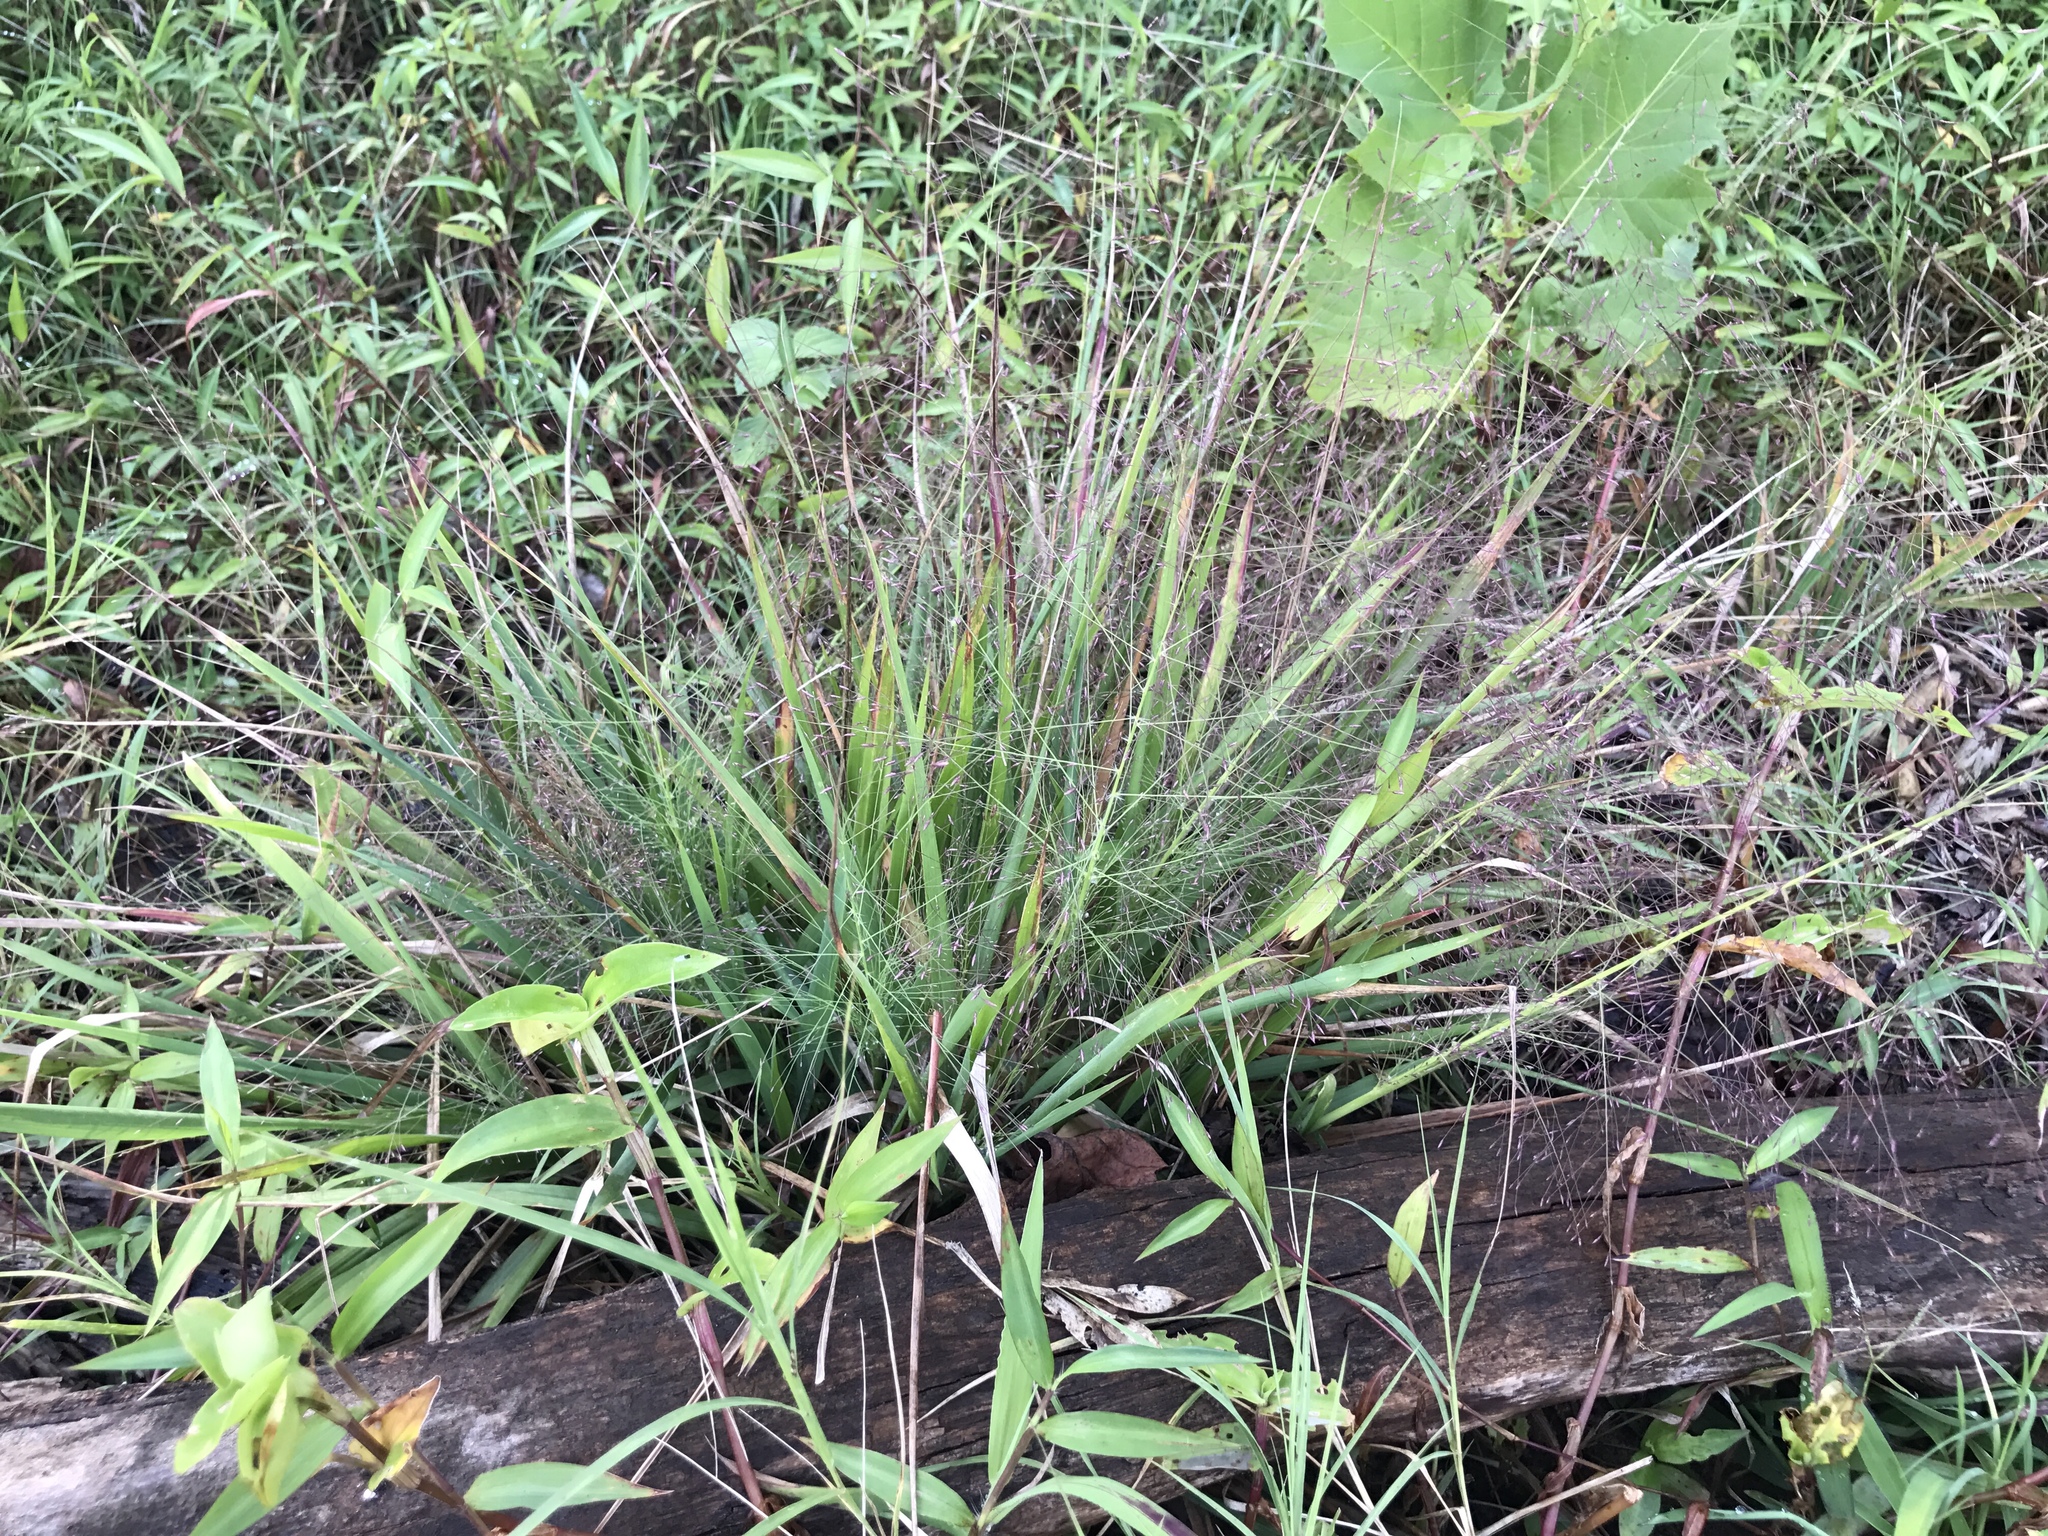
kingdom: Plantae
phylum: Tracheophyta
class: Liliopsida
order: Poales
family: Poaceae
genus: Eragrostis
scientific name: Eragrostis spectabilis
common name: Petticoat-climber
